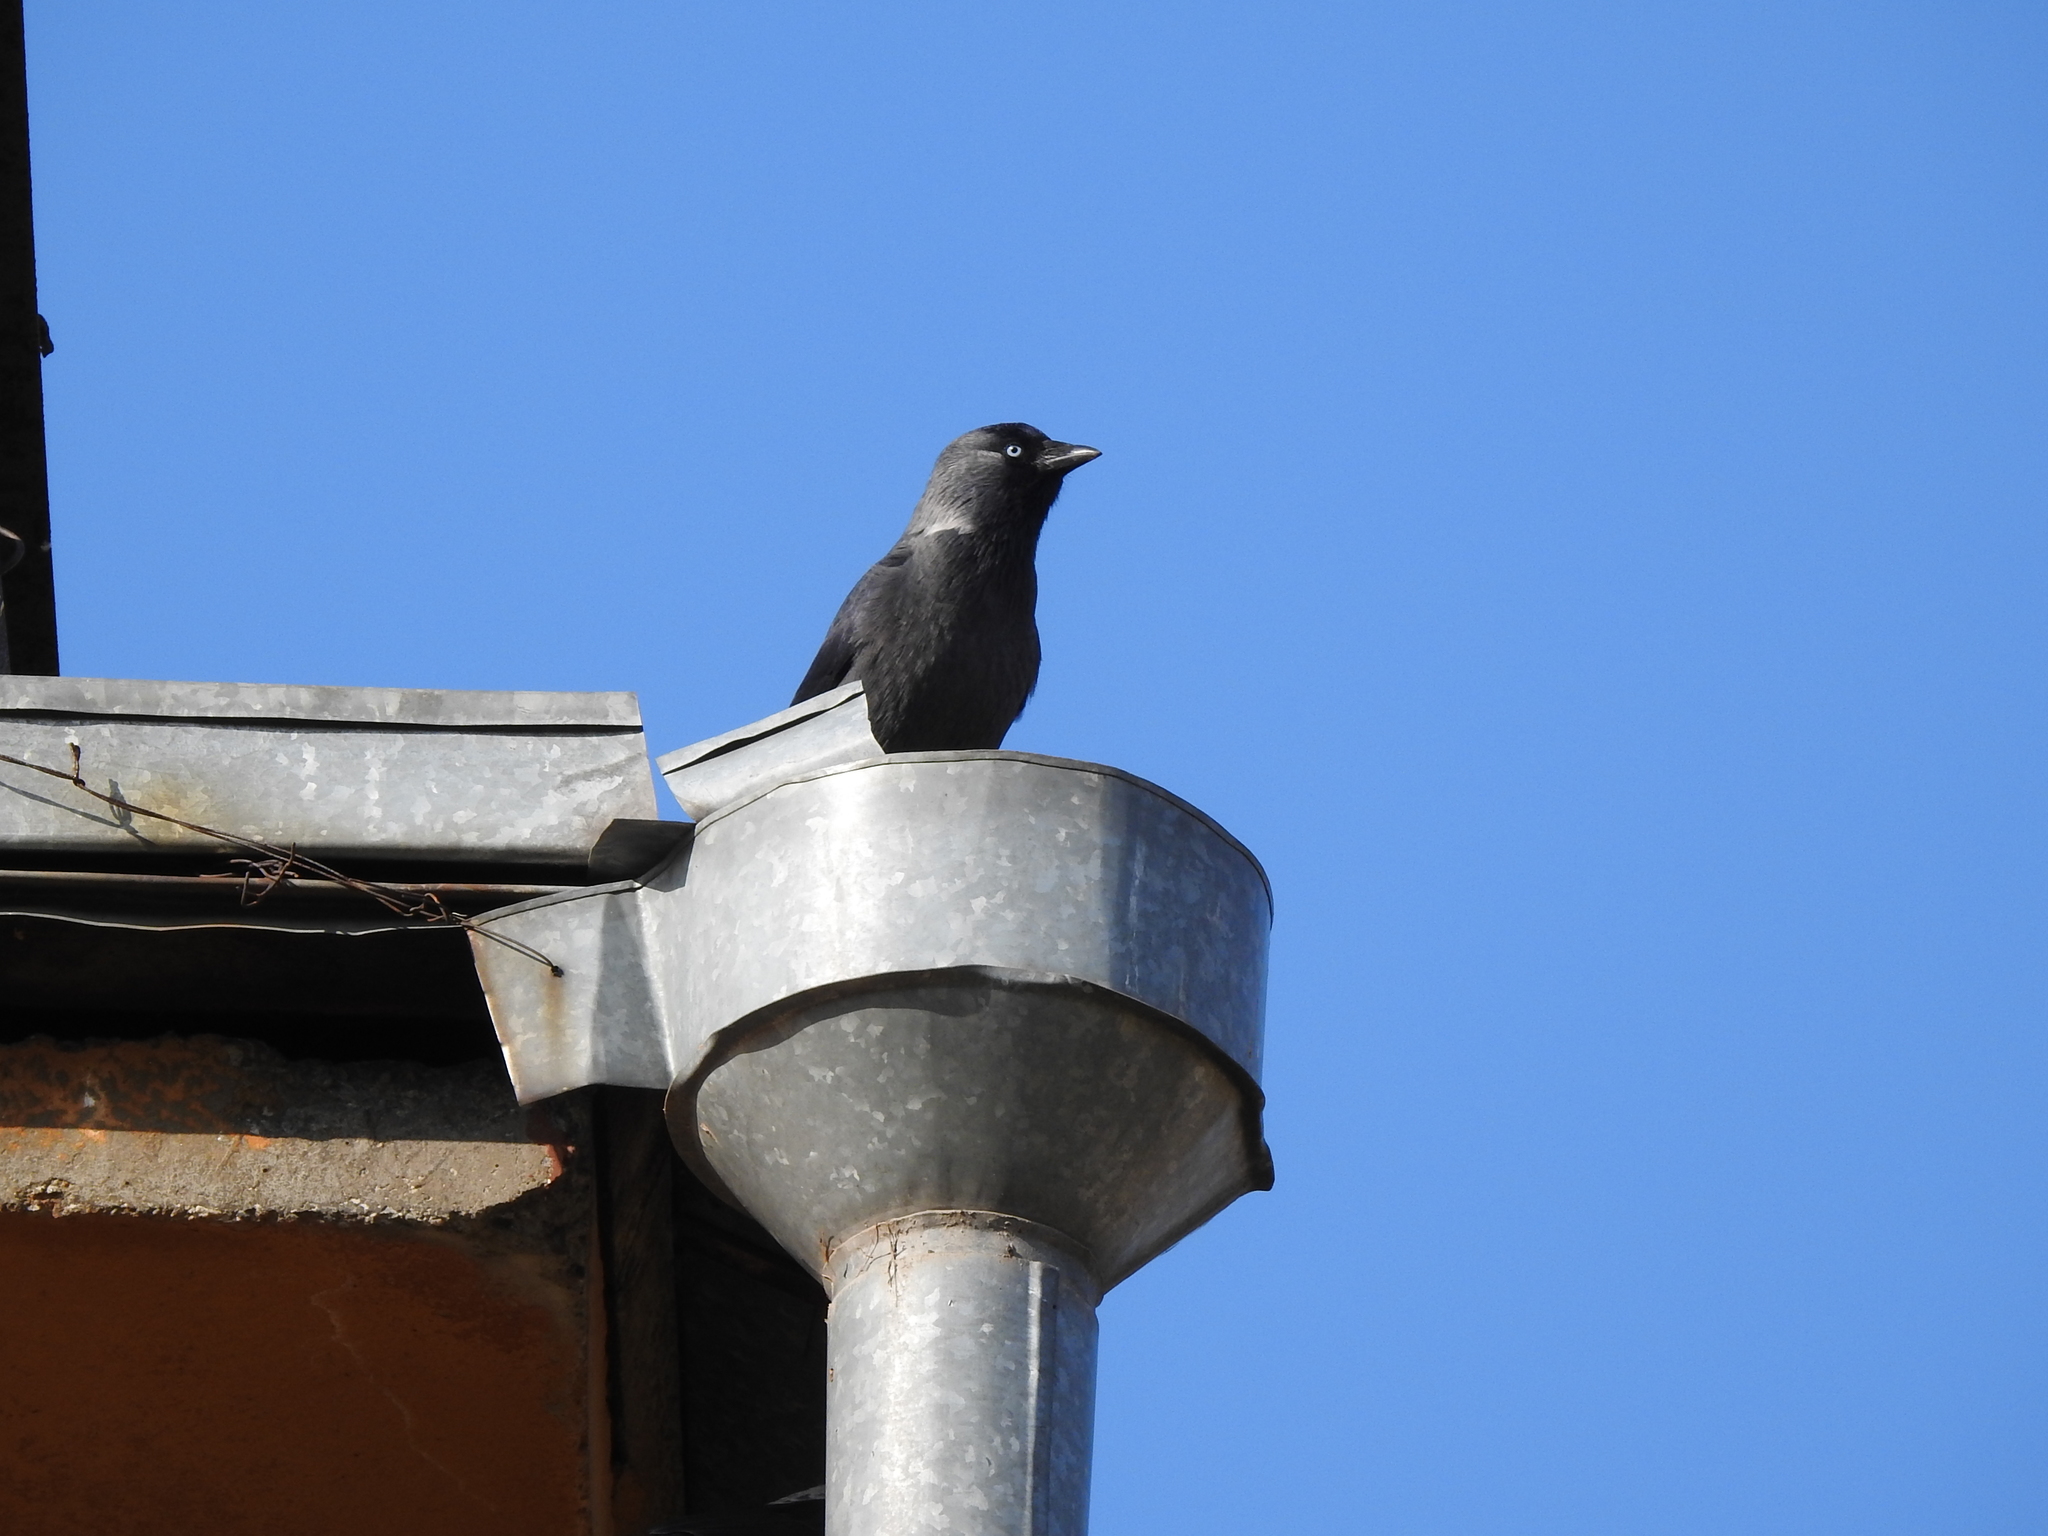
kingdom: Animalia
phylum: Chordata
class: Aves
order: Passeriformes
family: Corvidae
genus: Coloeus
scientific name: Coloeus monedula
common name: Western jackdaw
